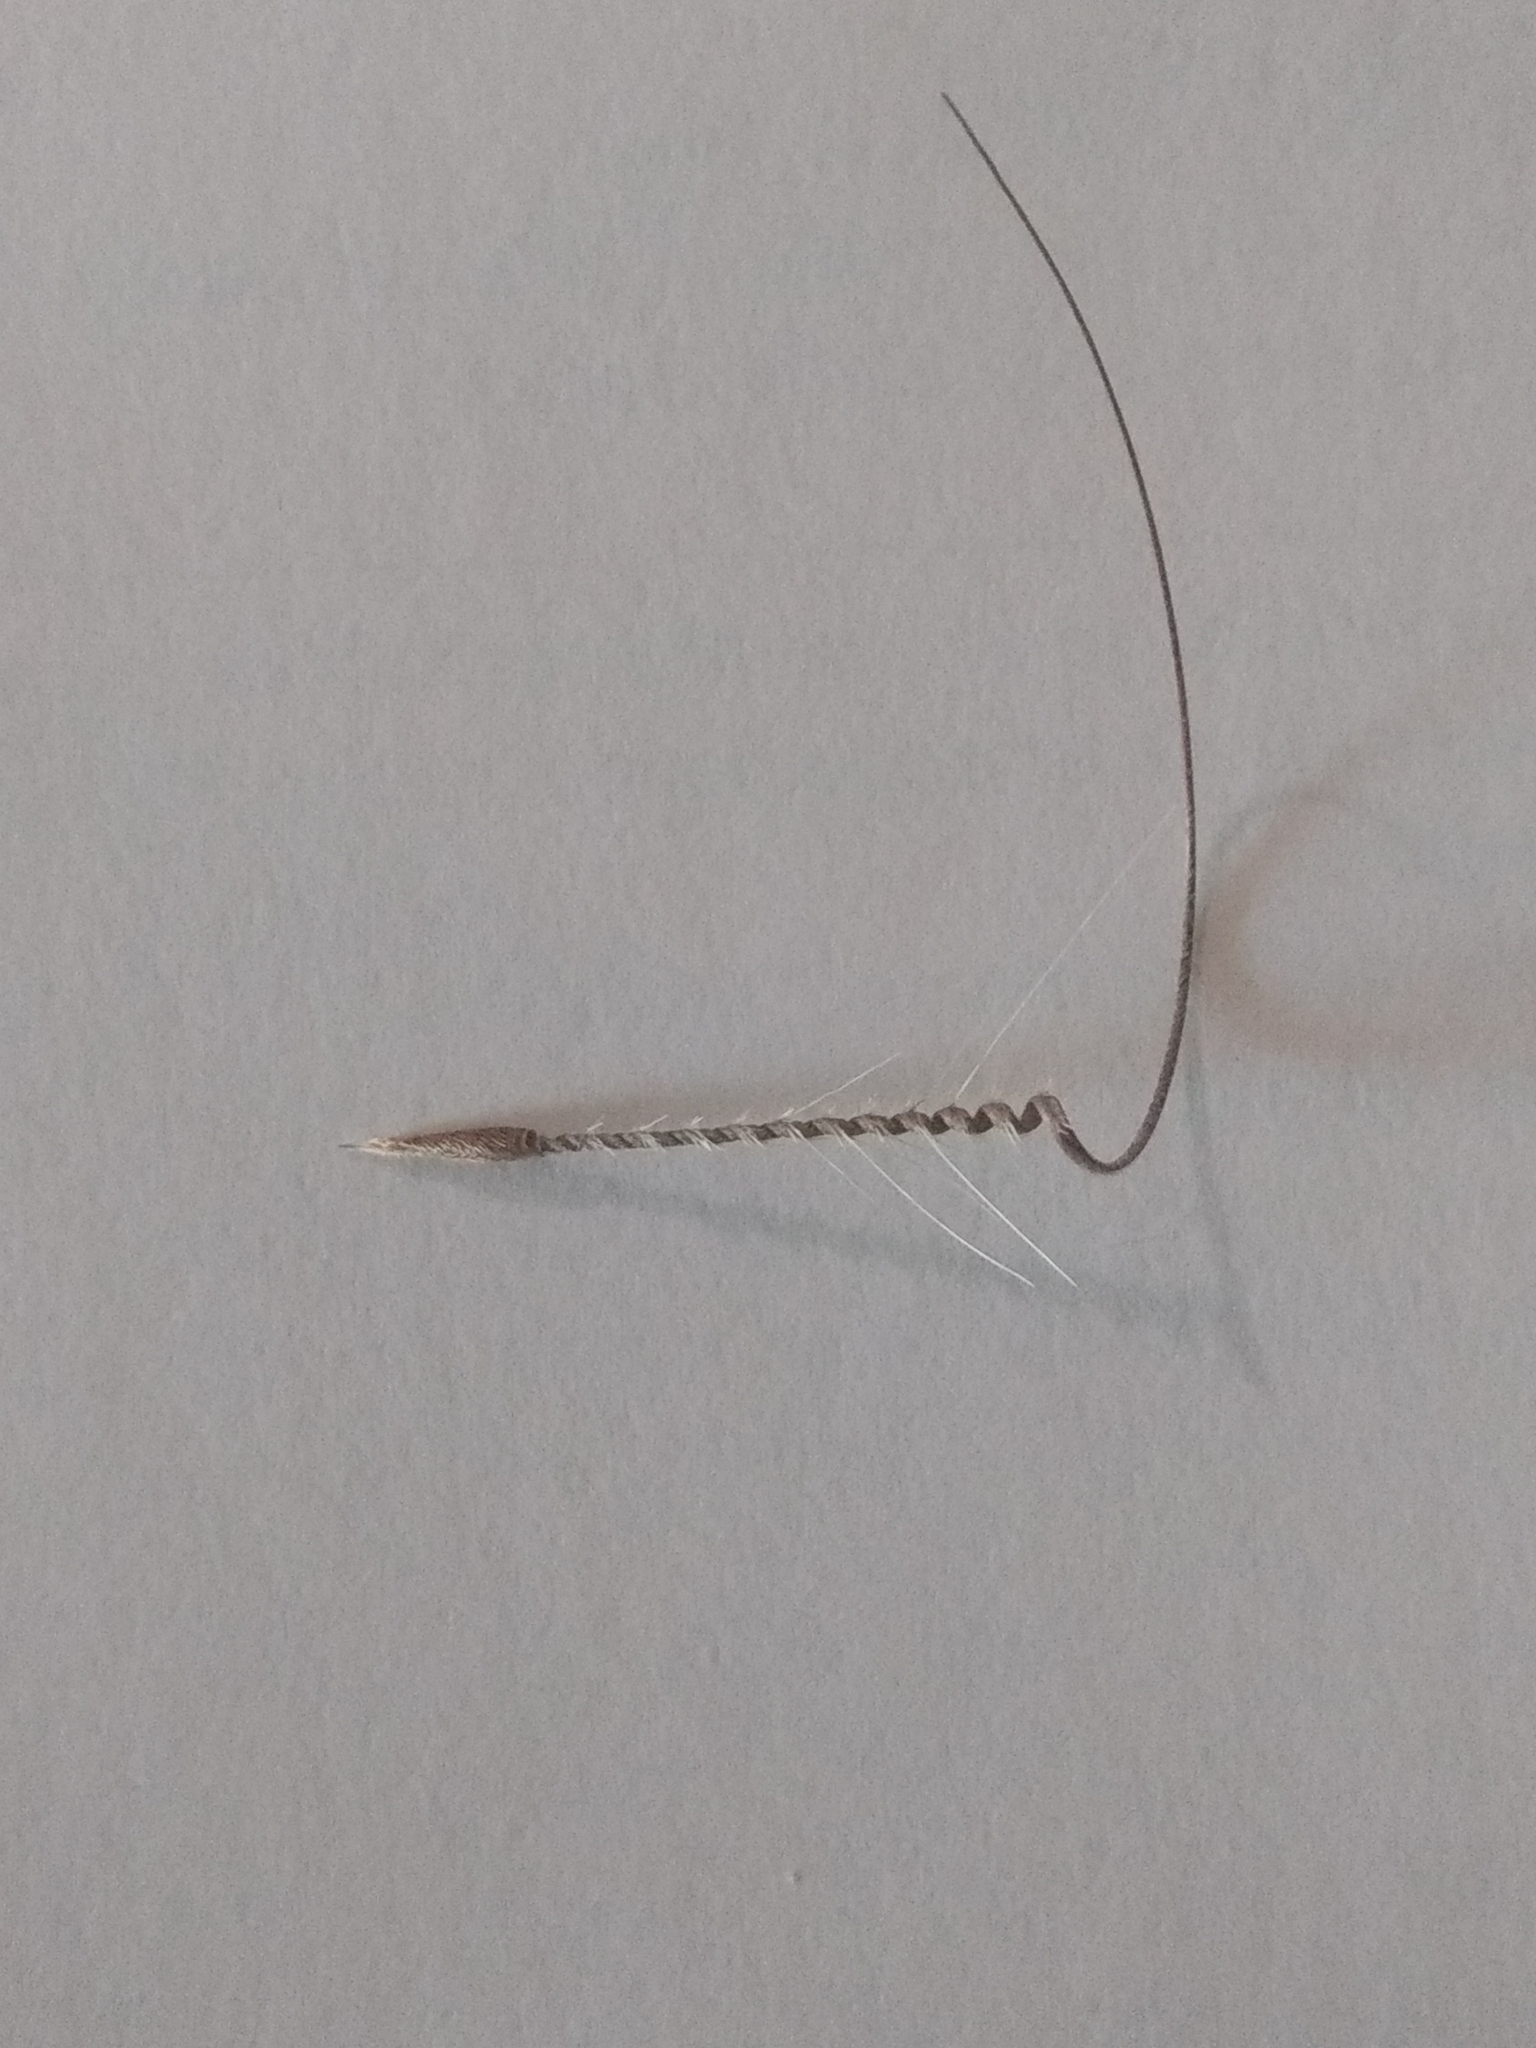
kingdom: Plantae
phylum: Tracheophyta
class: Magnoliopsida
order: Geraniales
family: Geraniaceae
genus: Erodium
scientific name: Erodium
